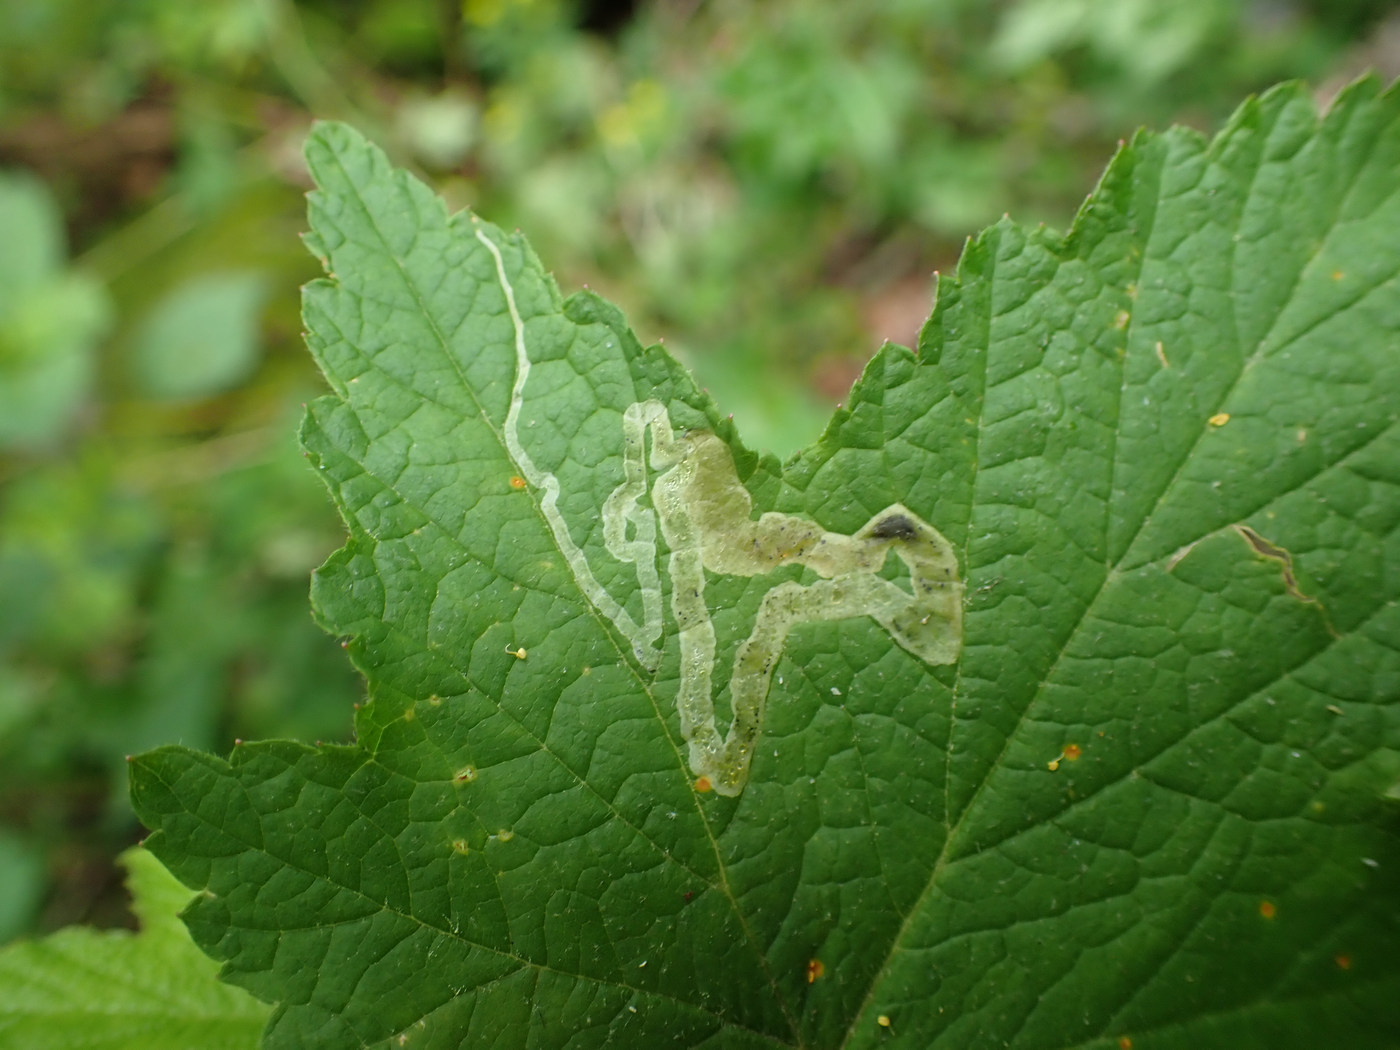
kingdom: Animalia
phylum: Arthropoda
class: Insecta
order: Diptera
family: Agromyzidae
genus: Agromyza
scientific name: Agromyza vockerothi
